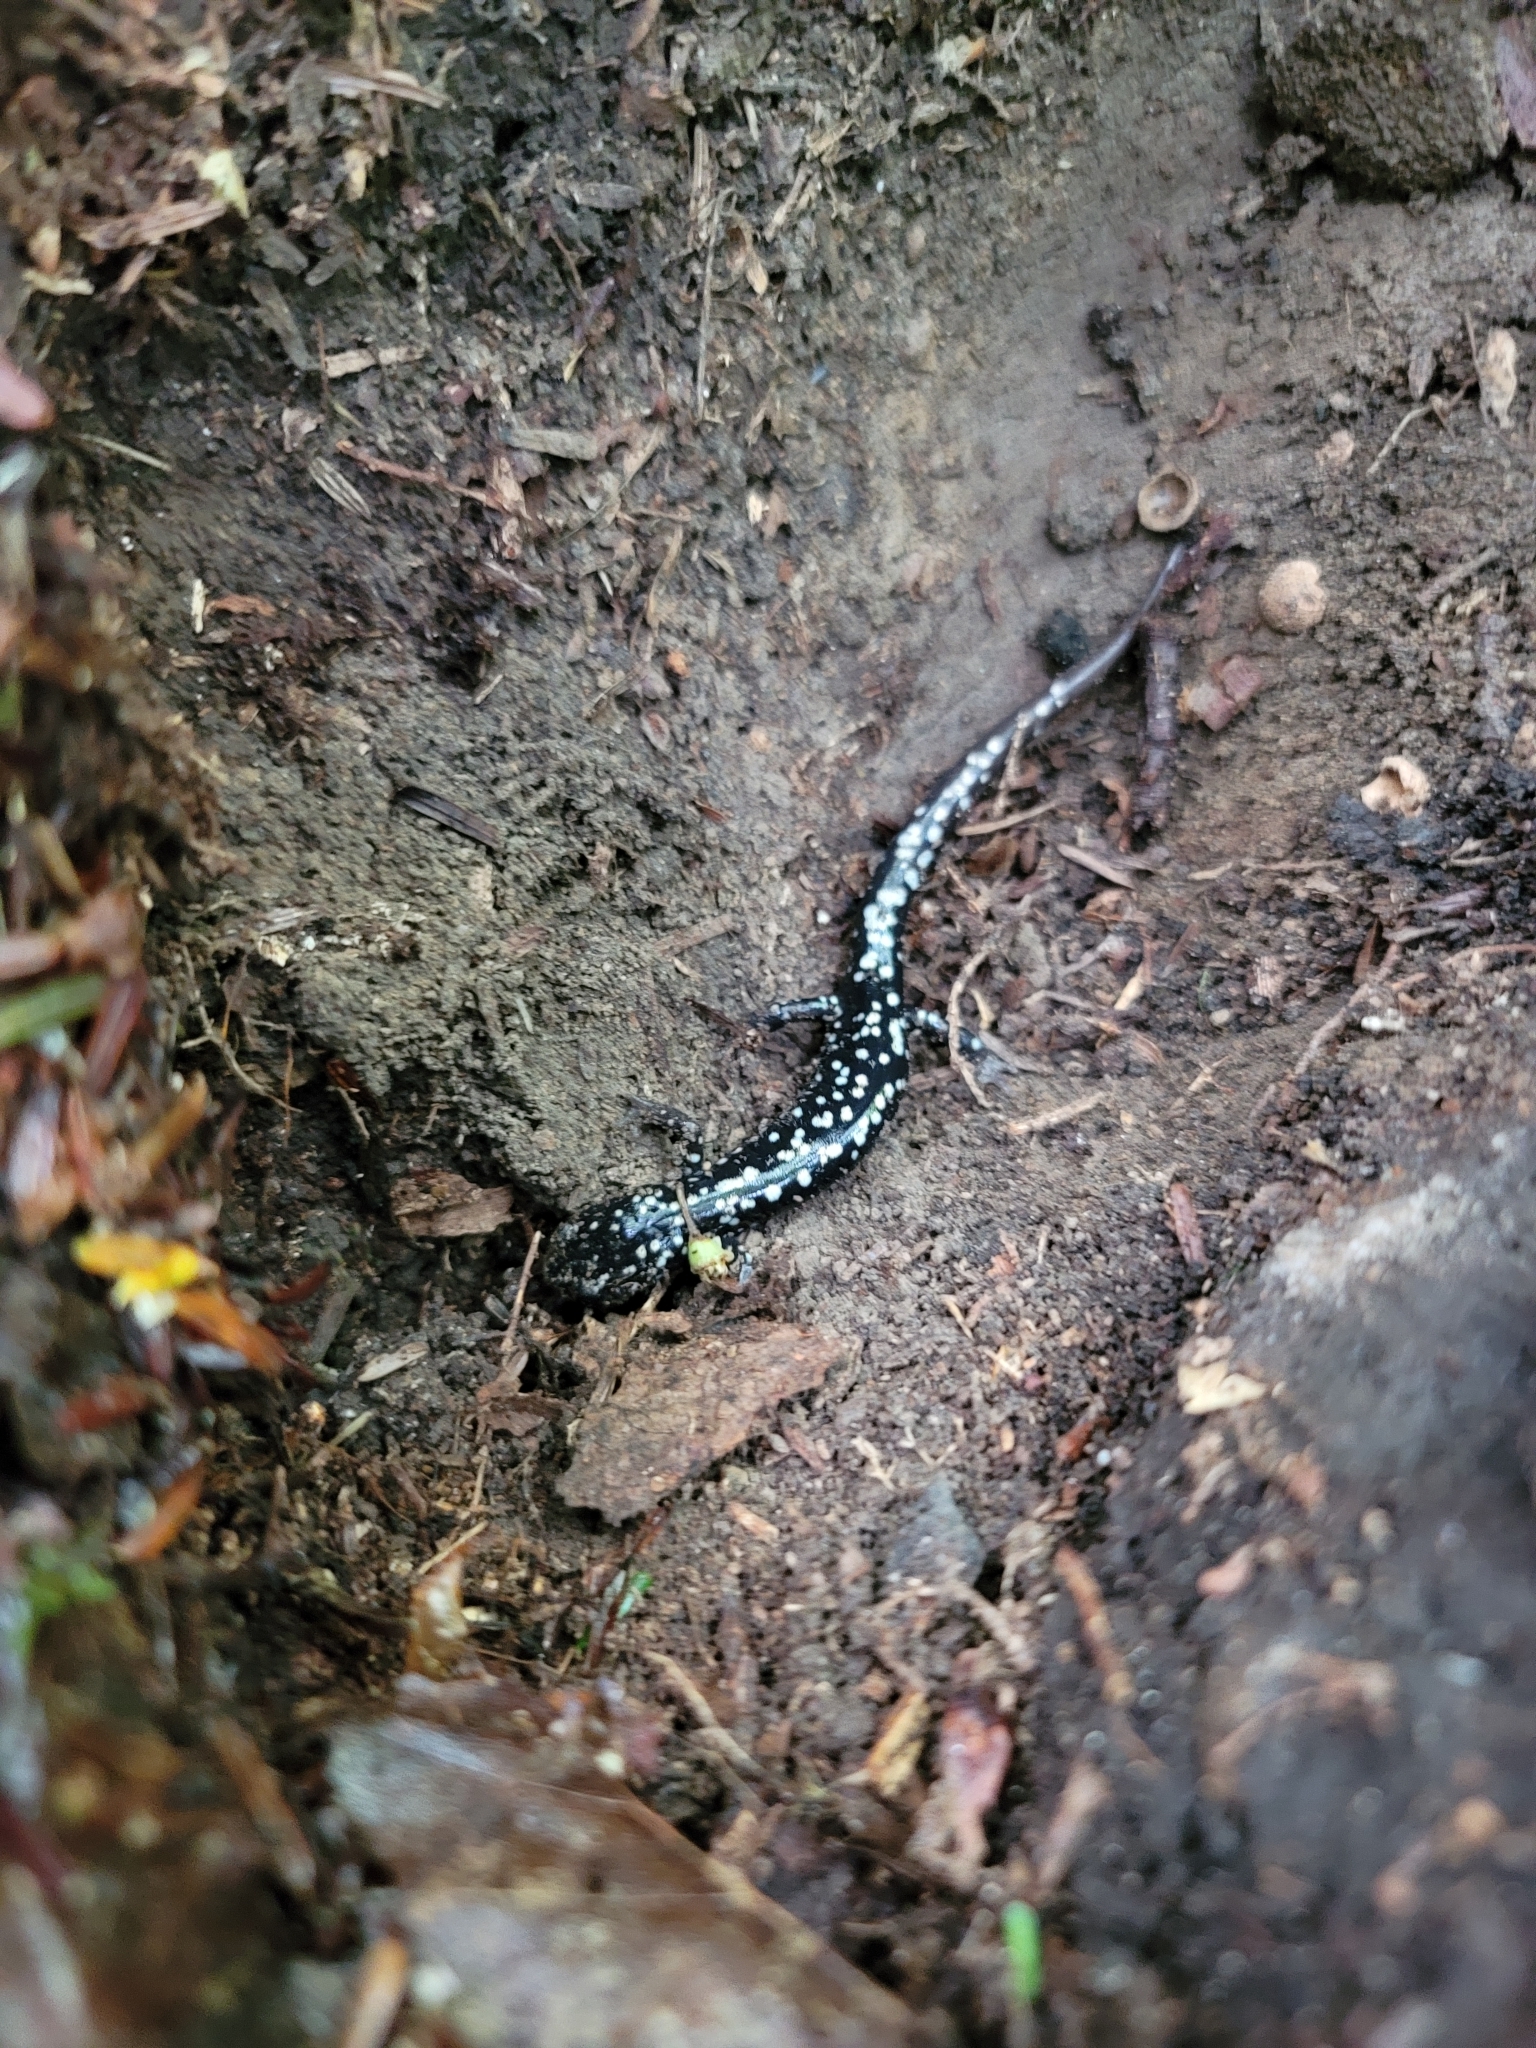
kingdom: Animalia
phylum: Chordata
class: Amphibia
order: Caudata
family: Plethodontidae
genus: Plethodon
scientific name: Plethodon glutinosus
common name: Northern slimy salamander
